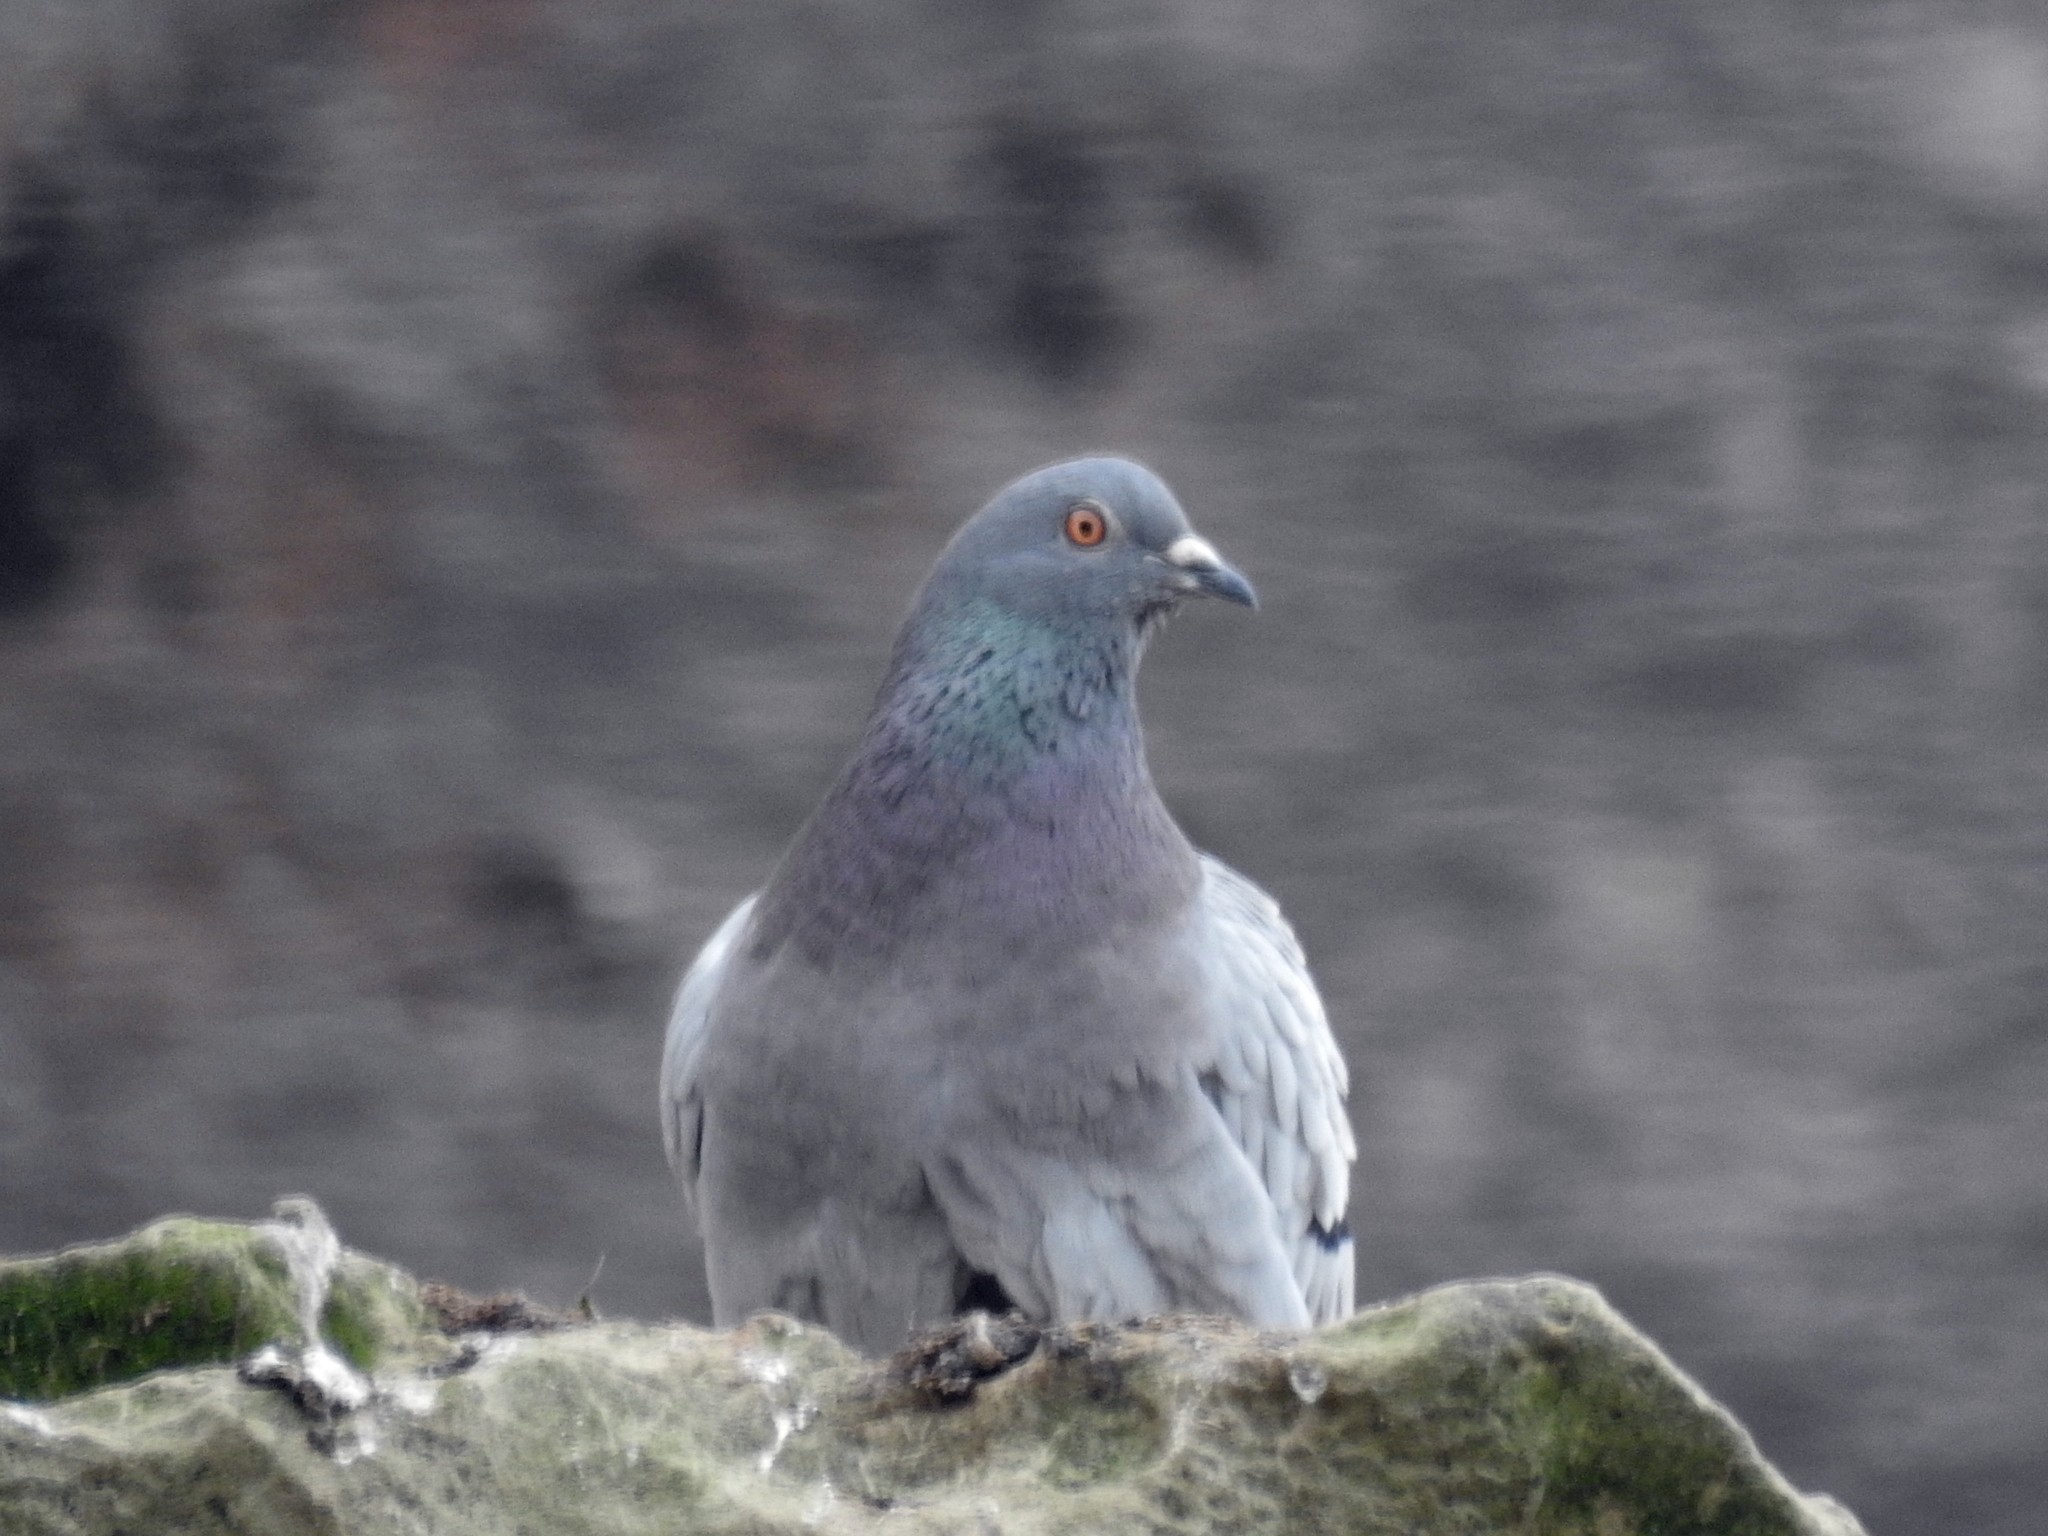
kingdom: Animalia
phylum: Chordata
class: Aves
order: Columbiformes
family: Columbidae
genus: Columba
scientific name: Columba livia
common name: Rock pigeon
